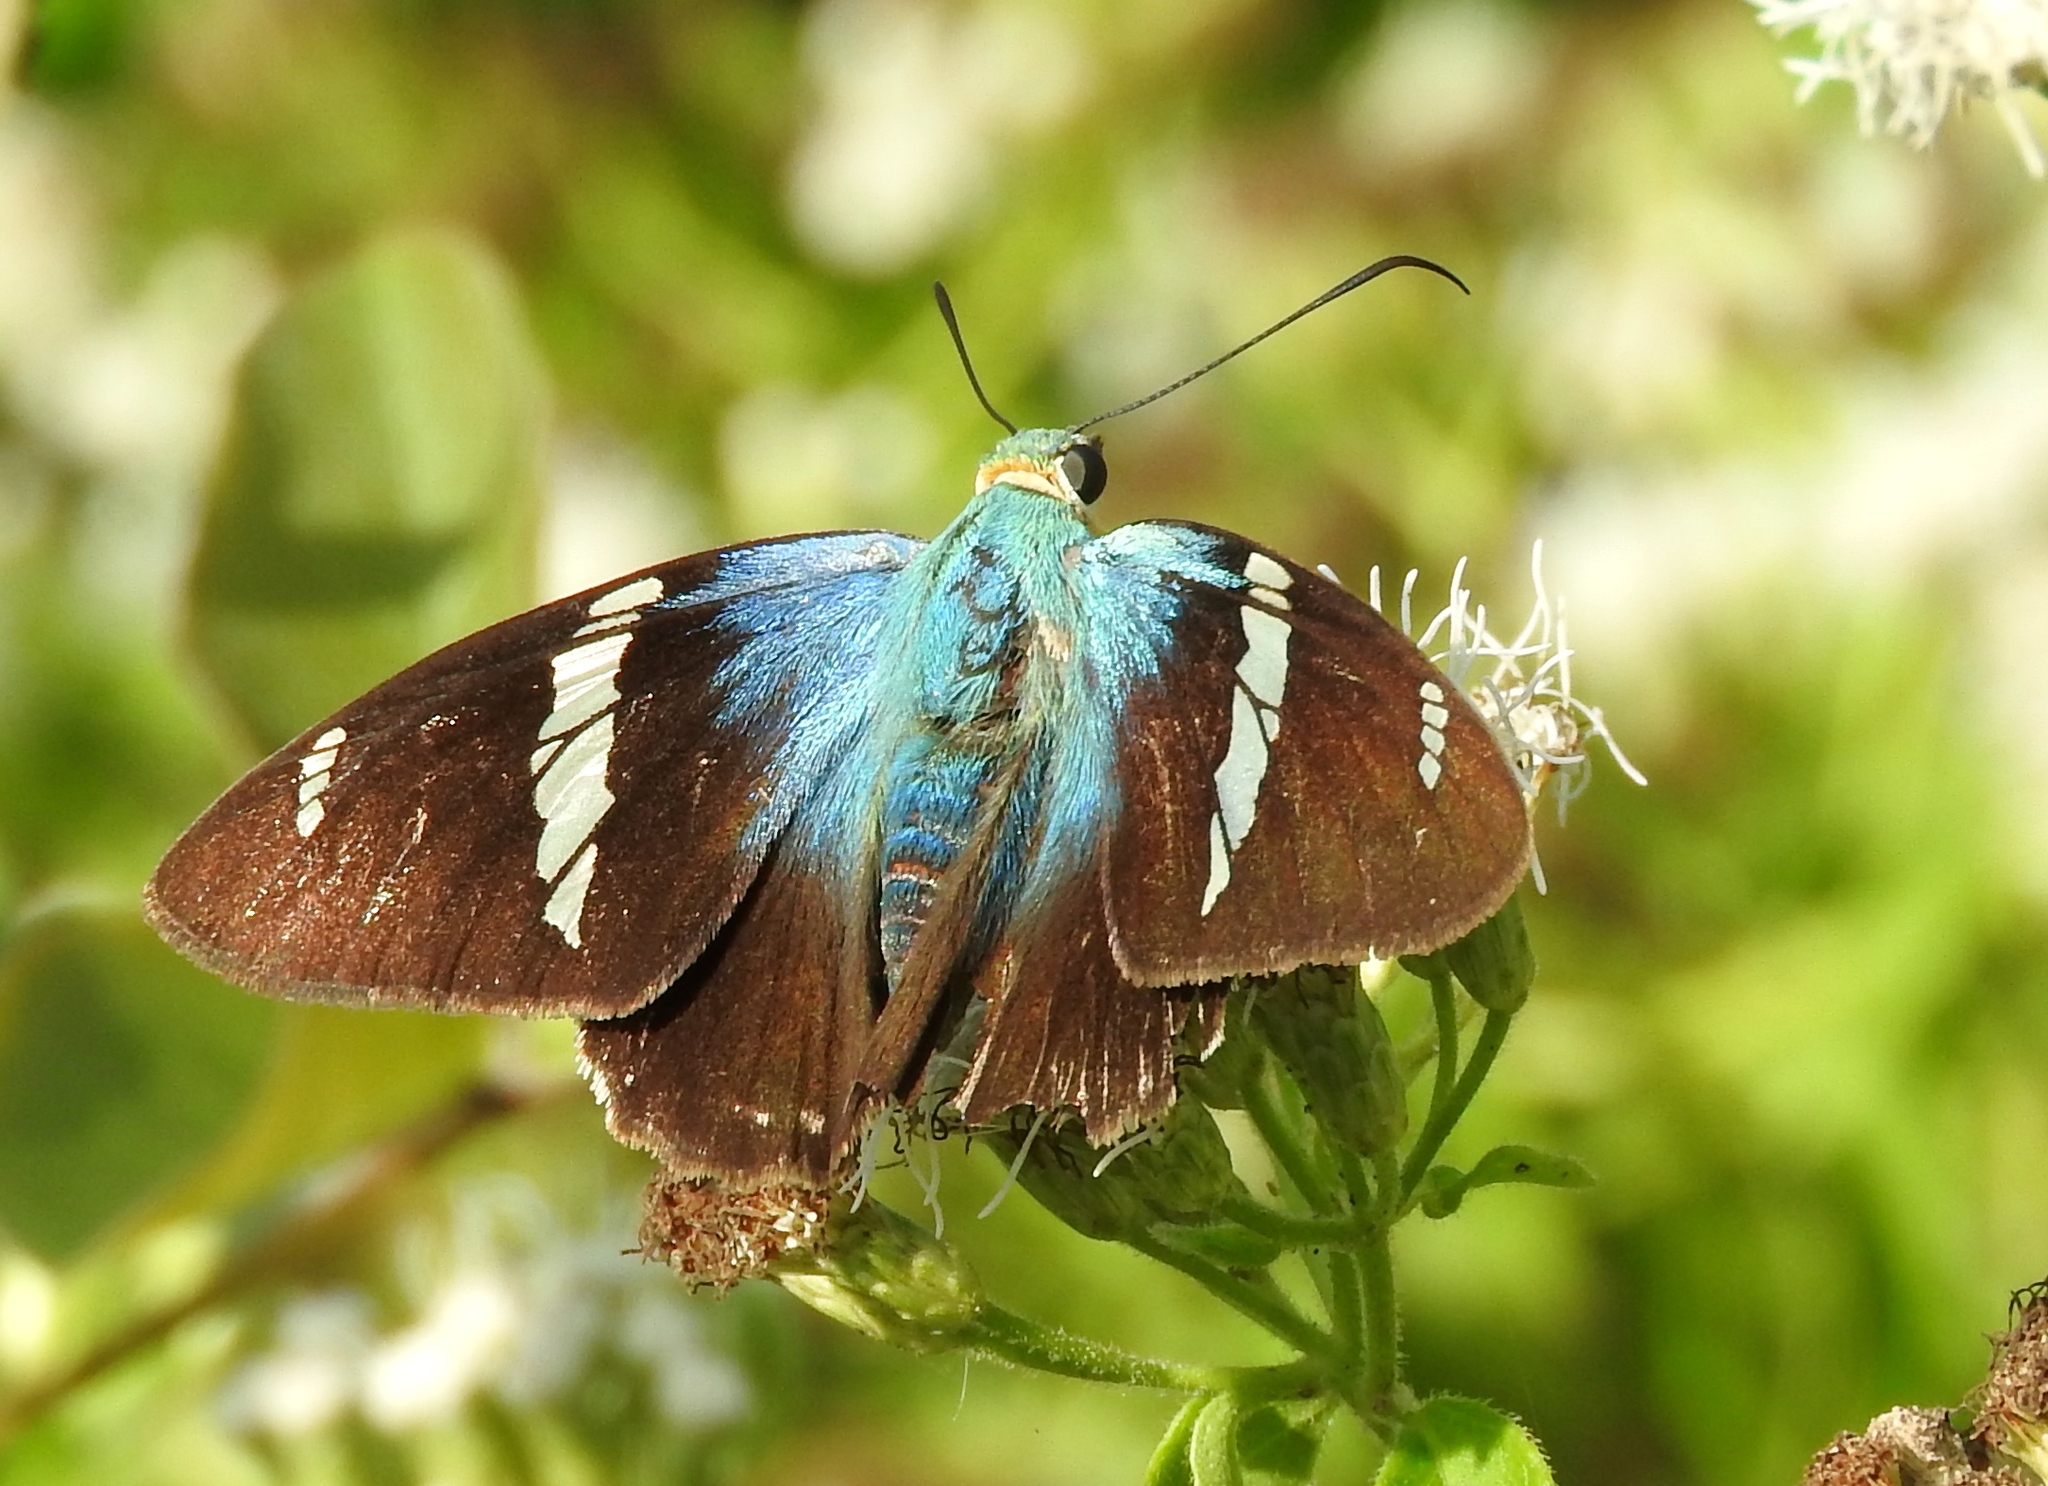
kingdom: Animalia
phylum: Arthropoda
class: Insecta
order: Lepidoptera
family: Hesperiidae
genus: Astraptes
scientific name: Astraptes fulgerator
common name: Two-barred flasher
